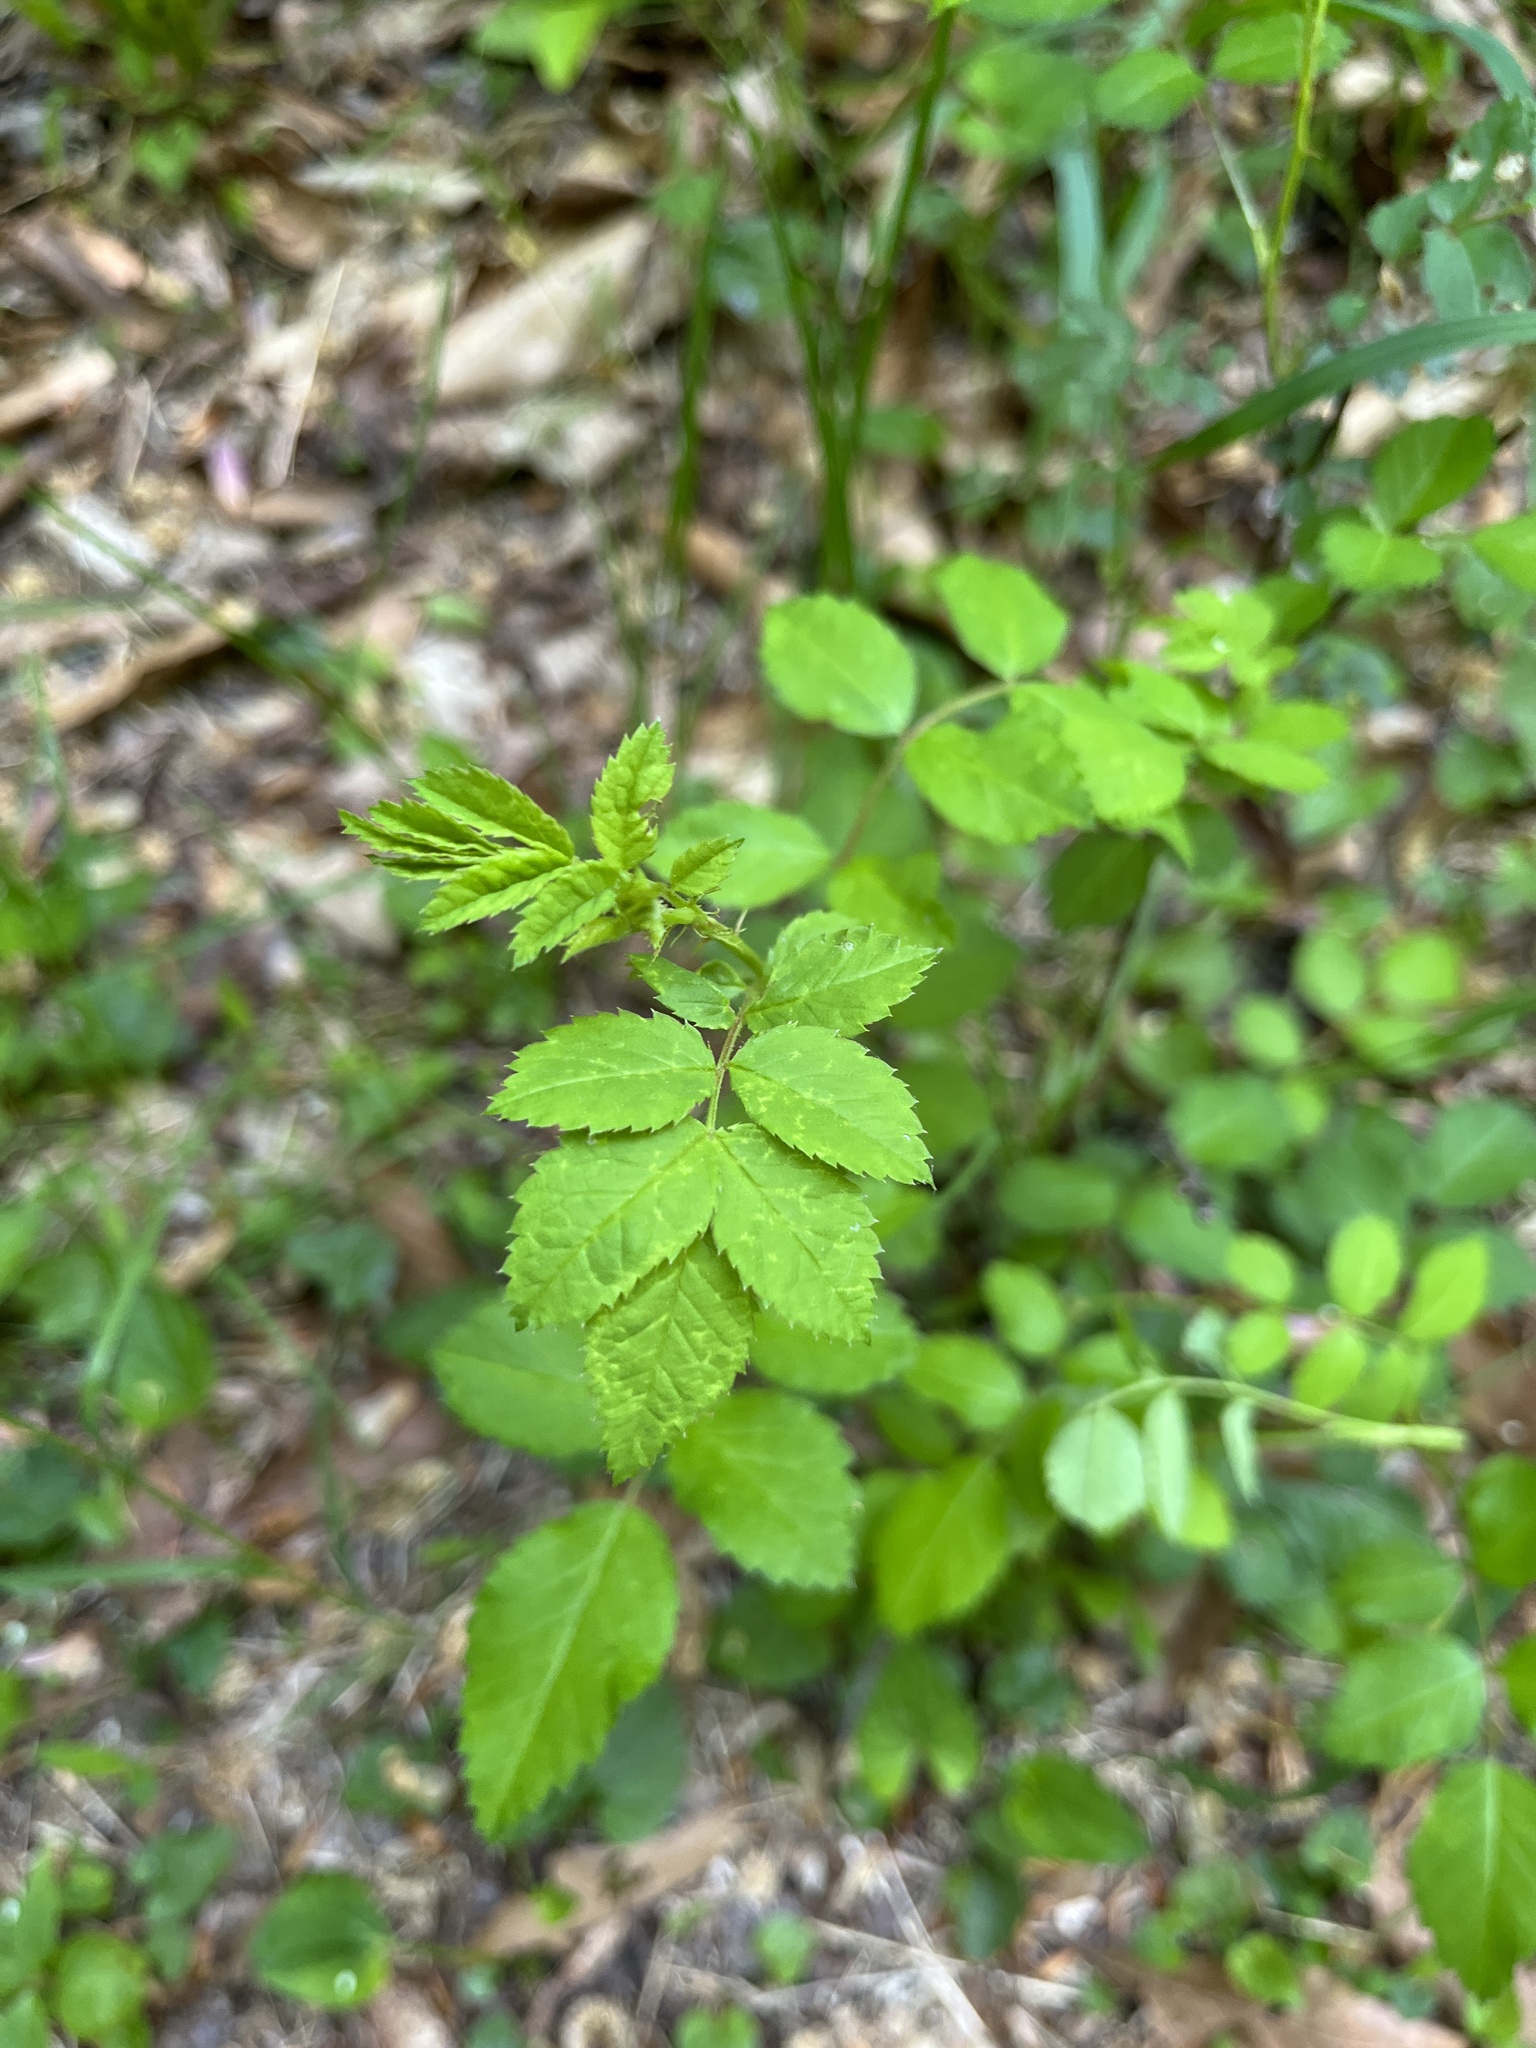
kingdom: Plantae
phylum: Tracheophyta
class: Magnoliopsida
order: Rosales
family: Rosaceae
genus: Rosa
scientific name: Rosa multiflora
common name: Multiflora rose
